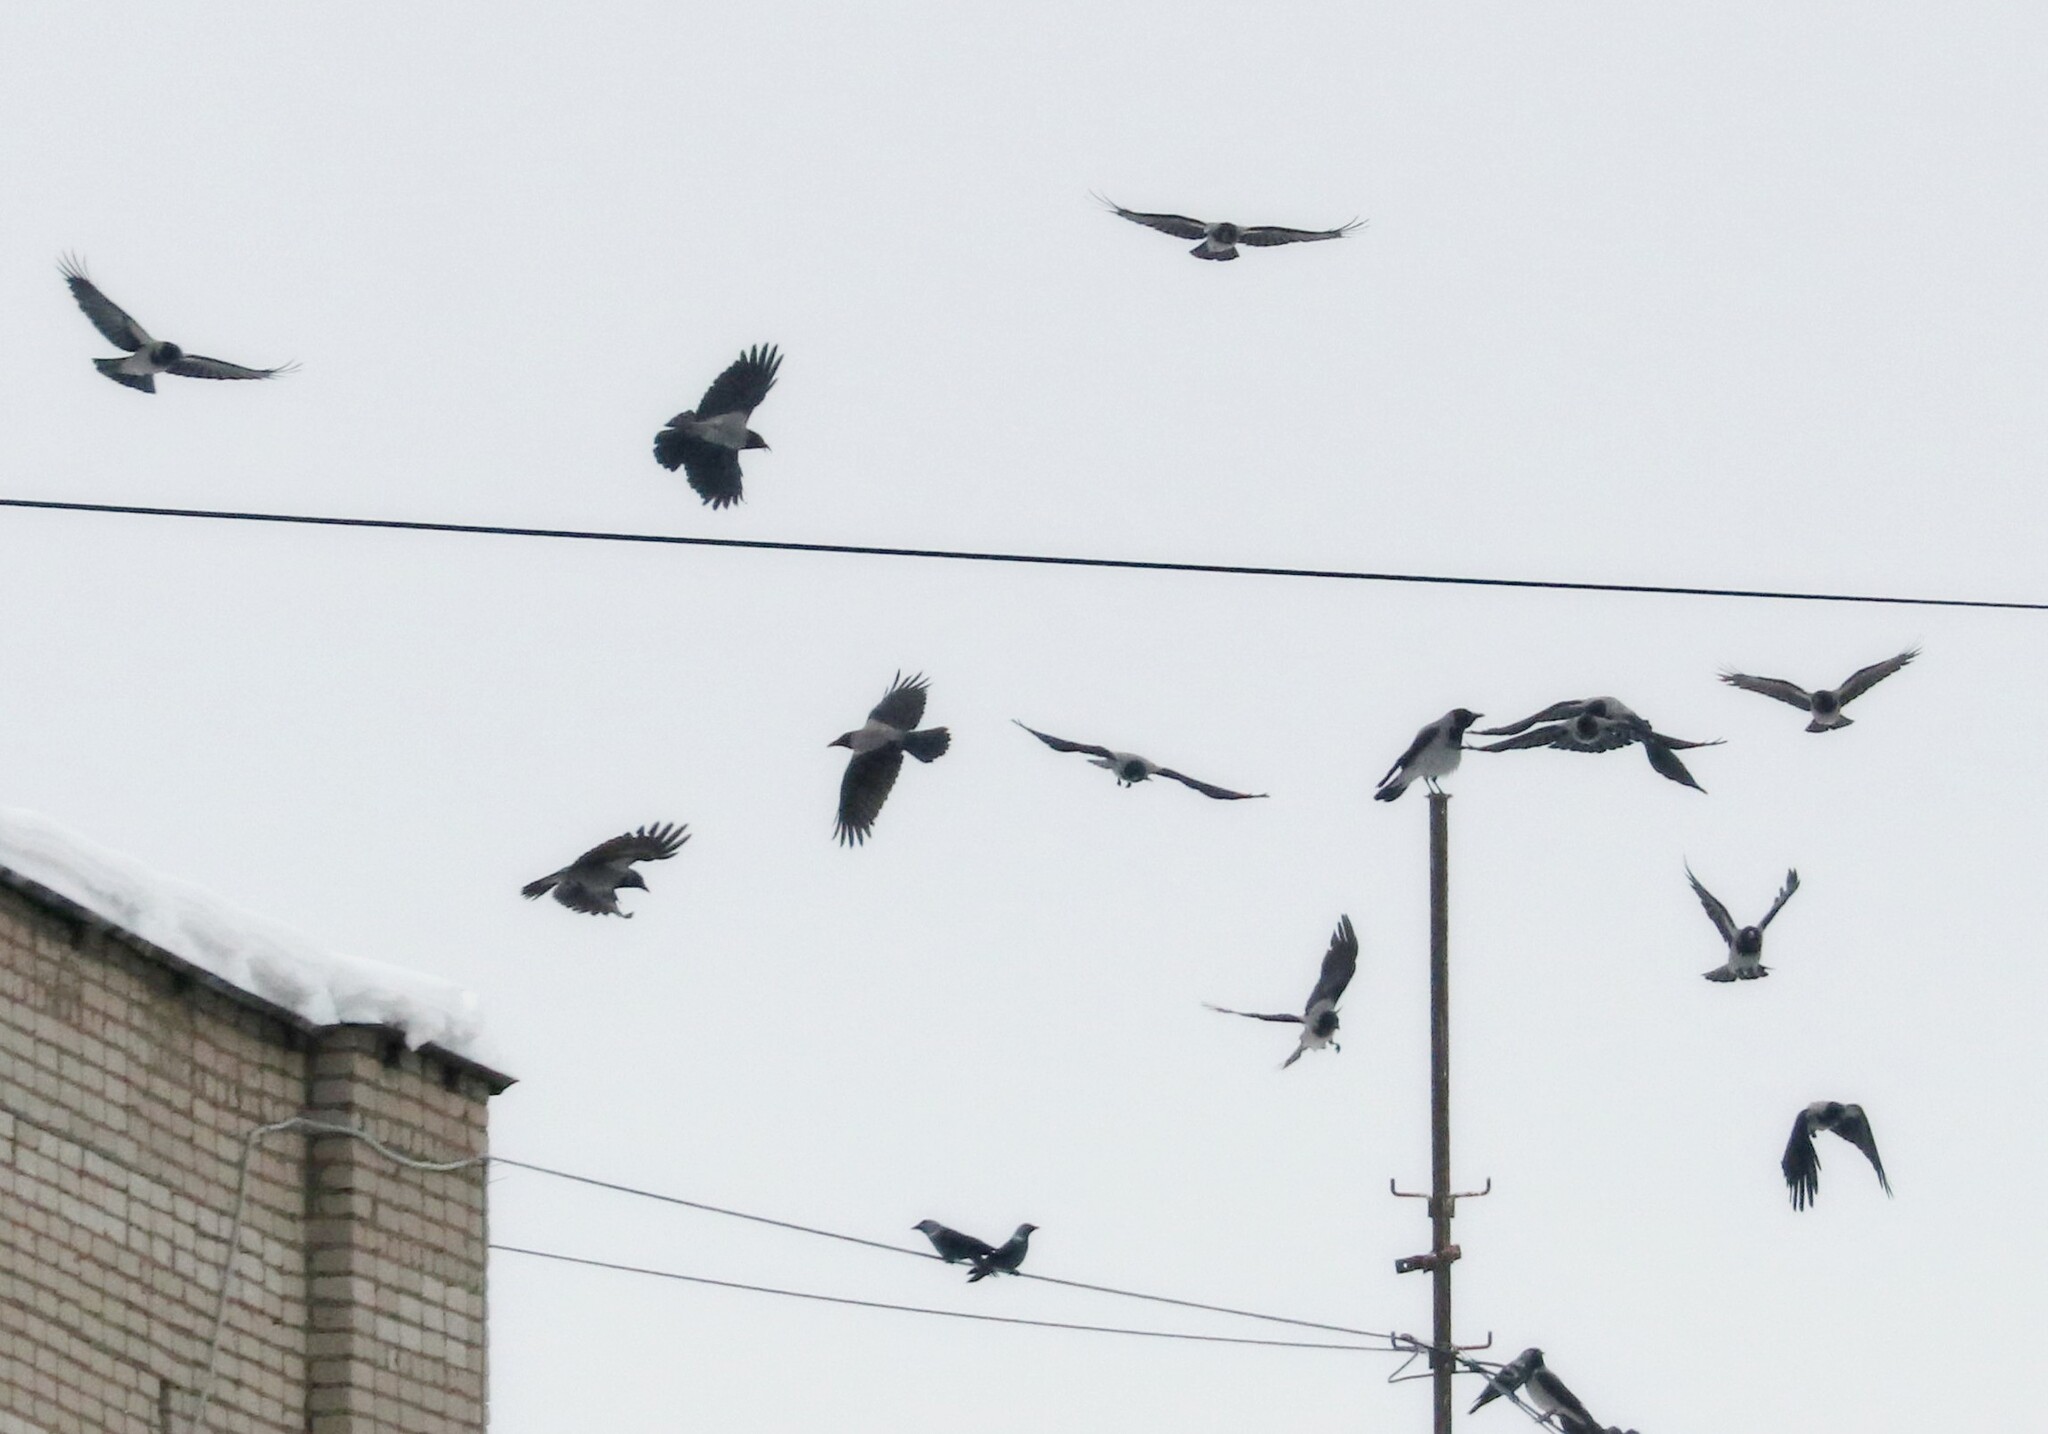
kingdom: Animalia
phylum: Chordata
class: Aves
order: Passeriformes
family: Corvidae
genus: Corvus
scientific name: Corvus cornix
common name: Hooded crow
